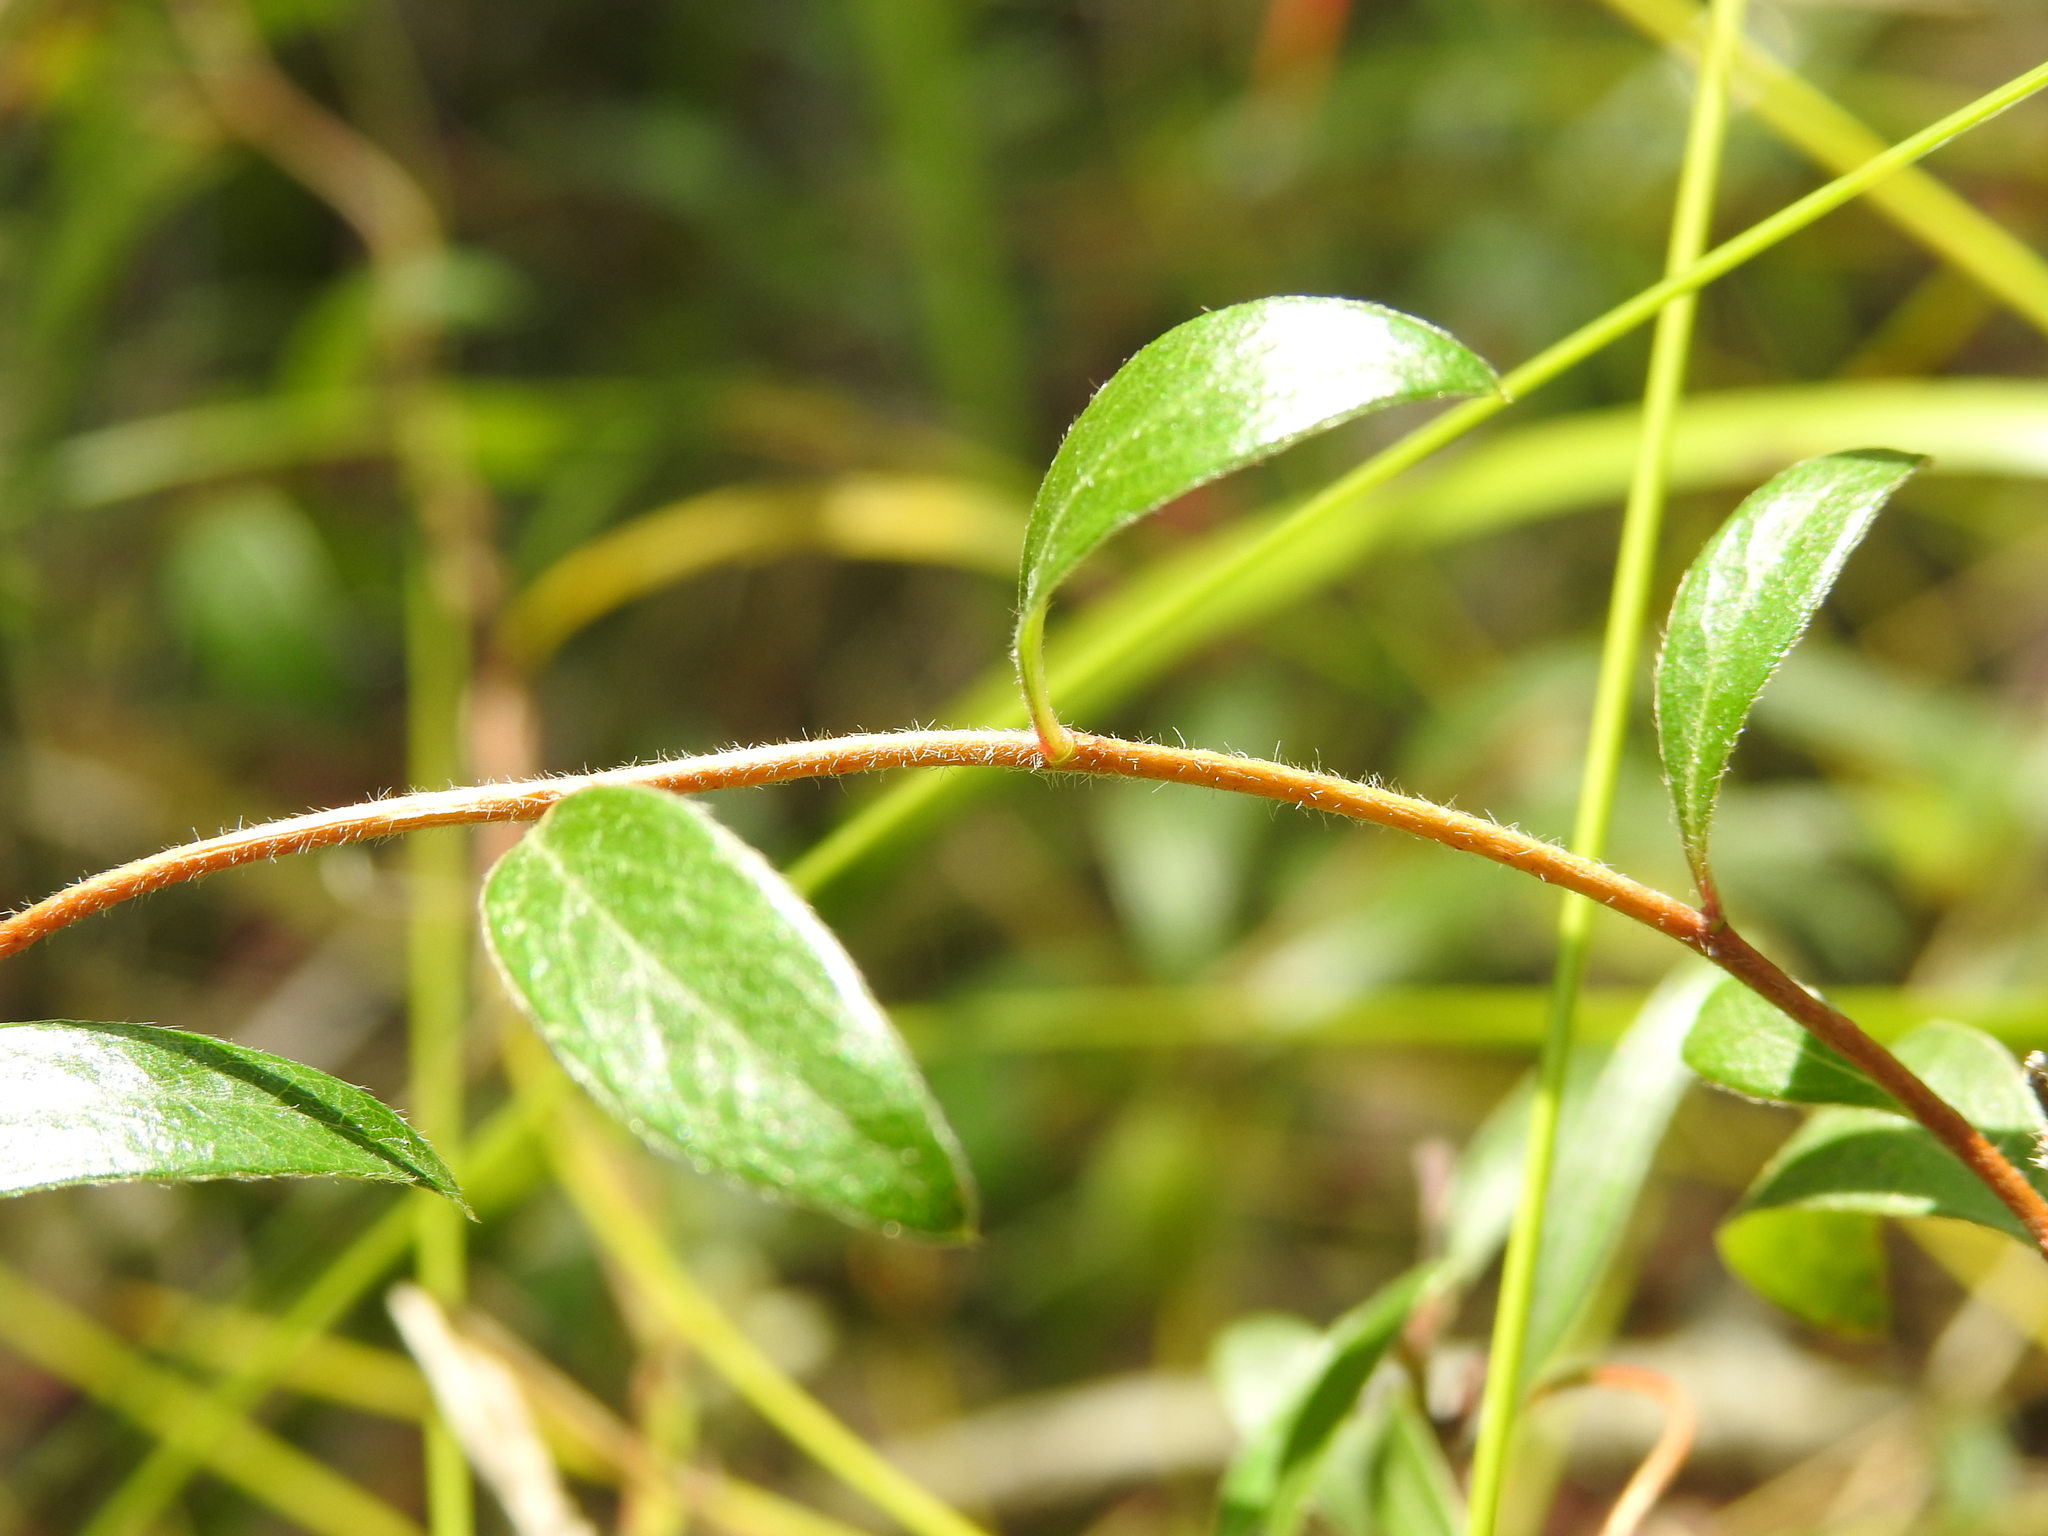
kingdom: Plantae
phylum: Tracheophyta
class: Magnoliopsida
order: Apiales
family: Pittosporaceae
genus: Billardiera
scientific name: Billardiera scandens
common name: Apple-berry
